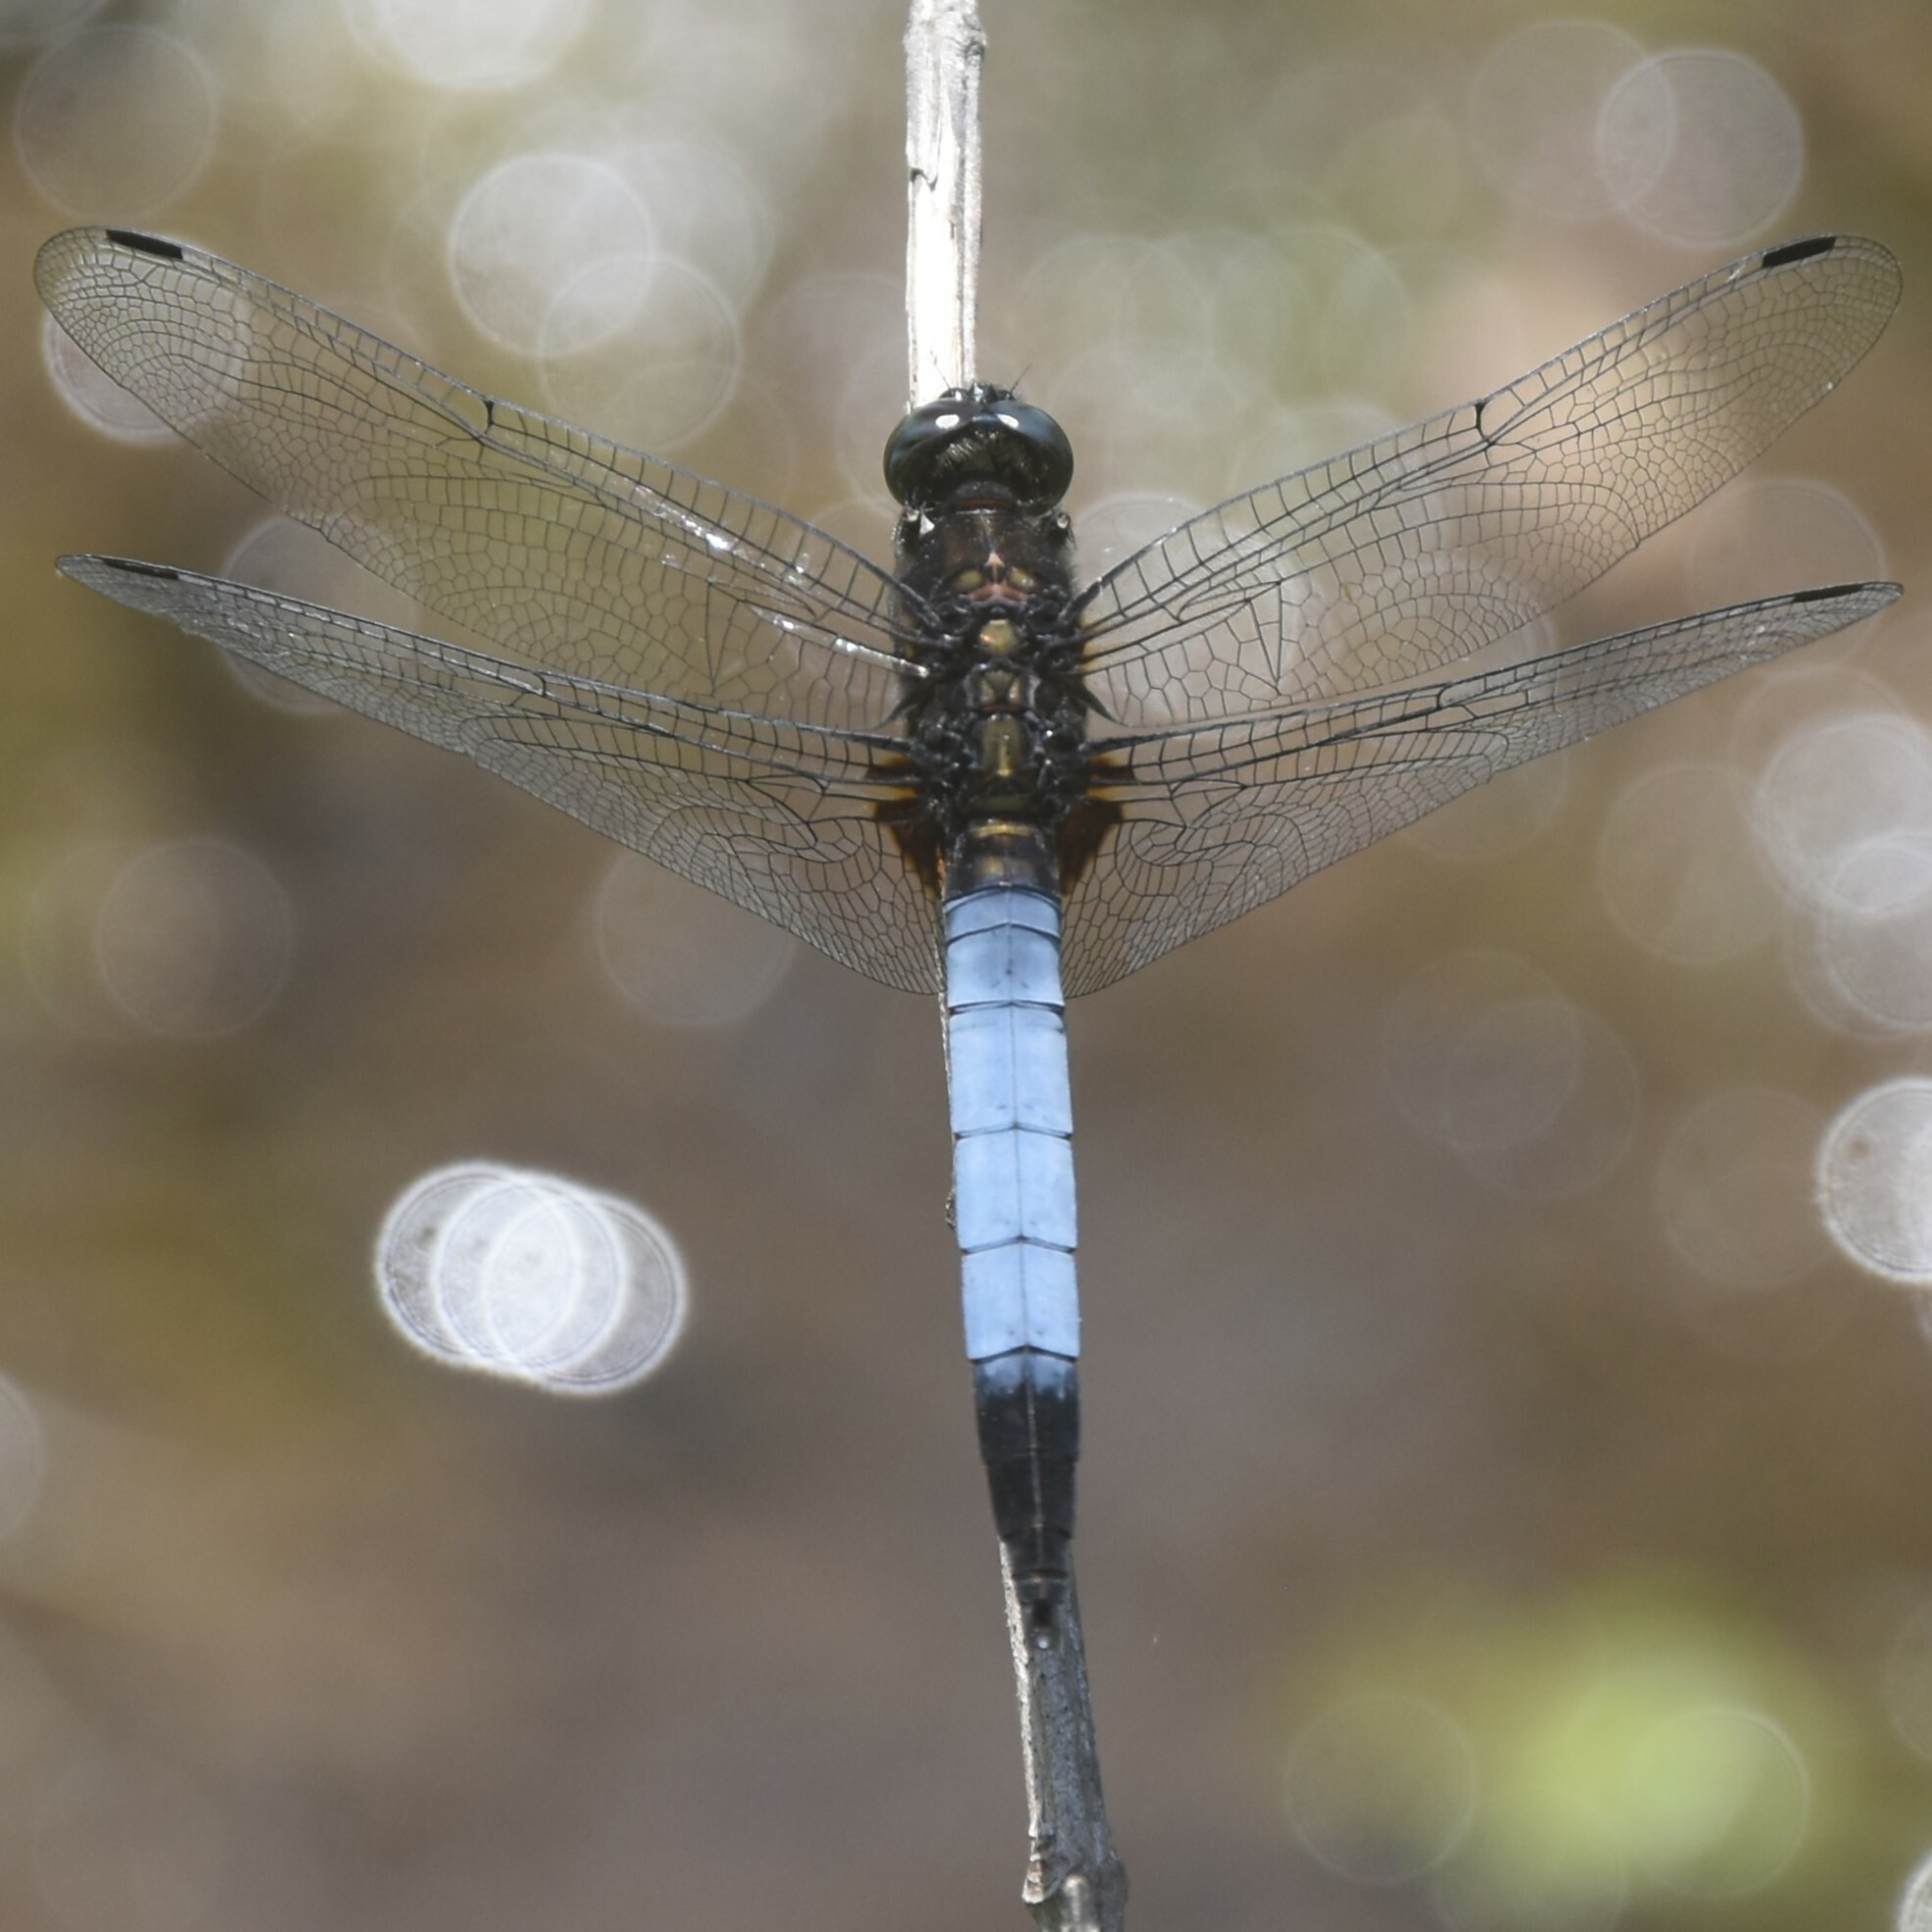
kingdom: Animalia
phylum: Arthropoda
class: Insecta
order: Odonata
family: Libellulidae
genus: Orthetrum
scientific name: Orthetrum triangulare
